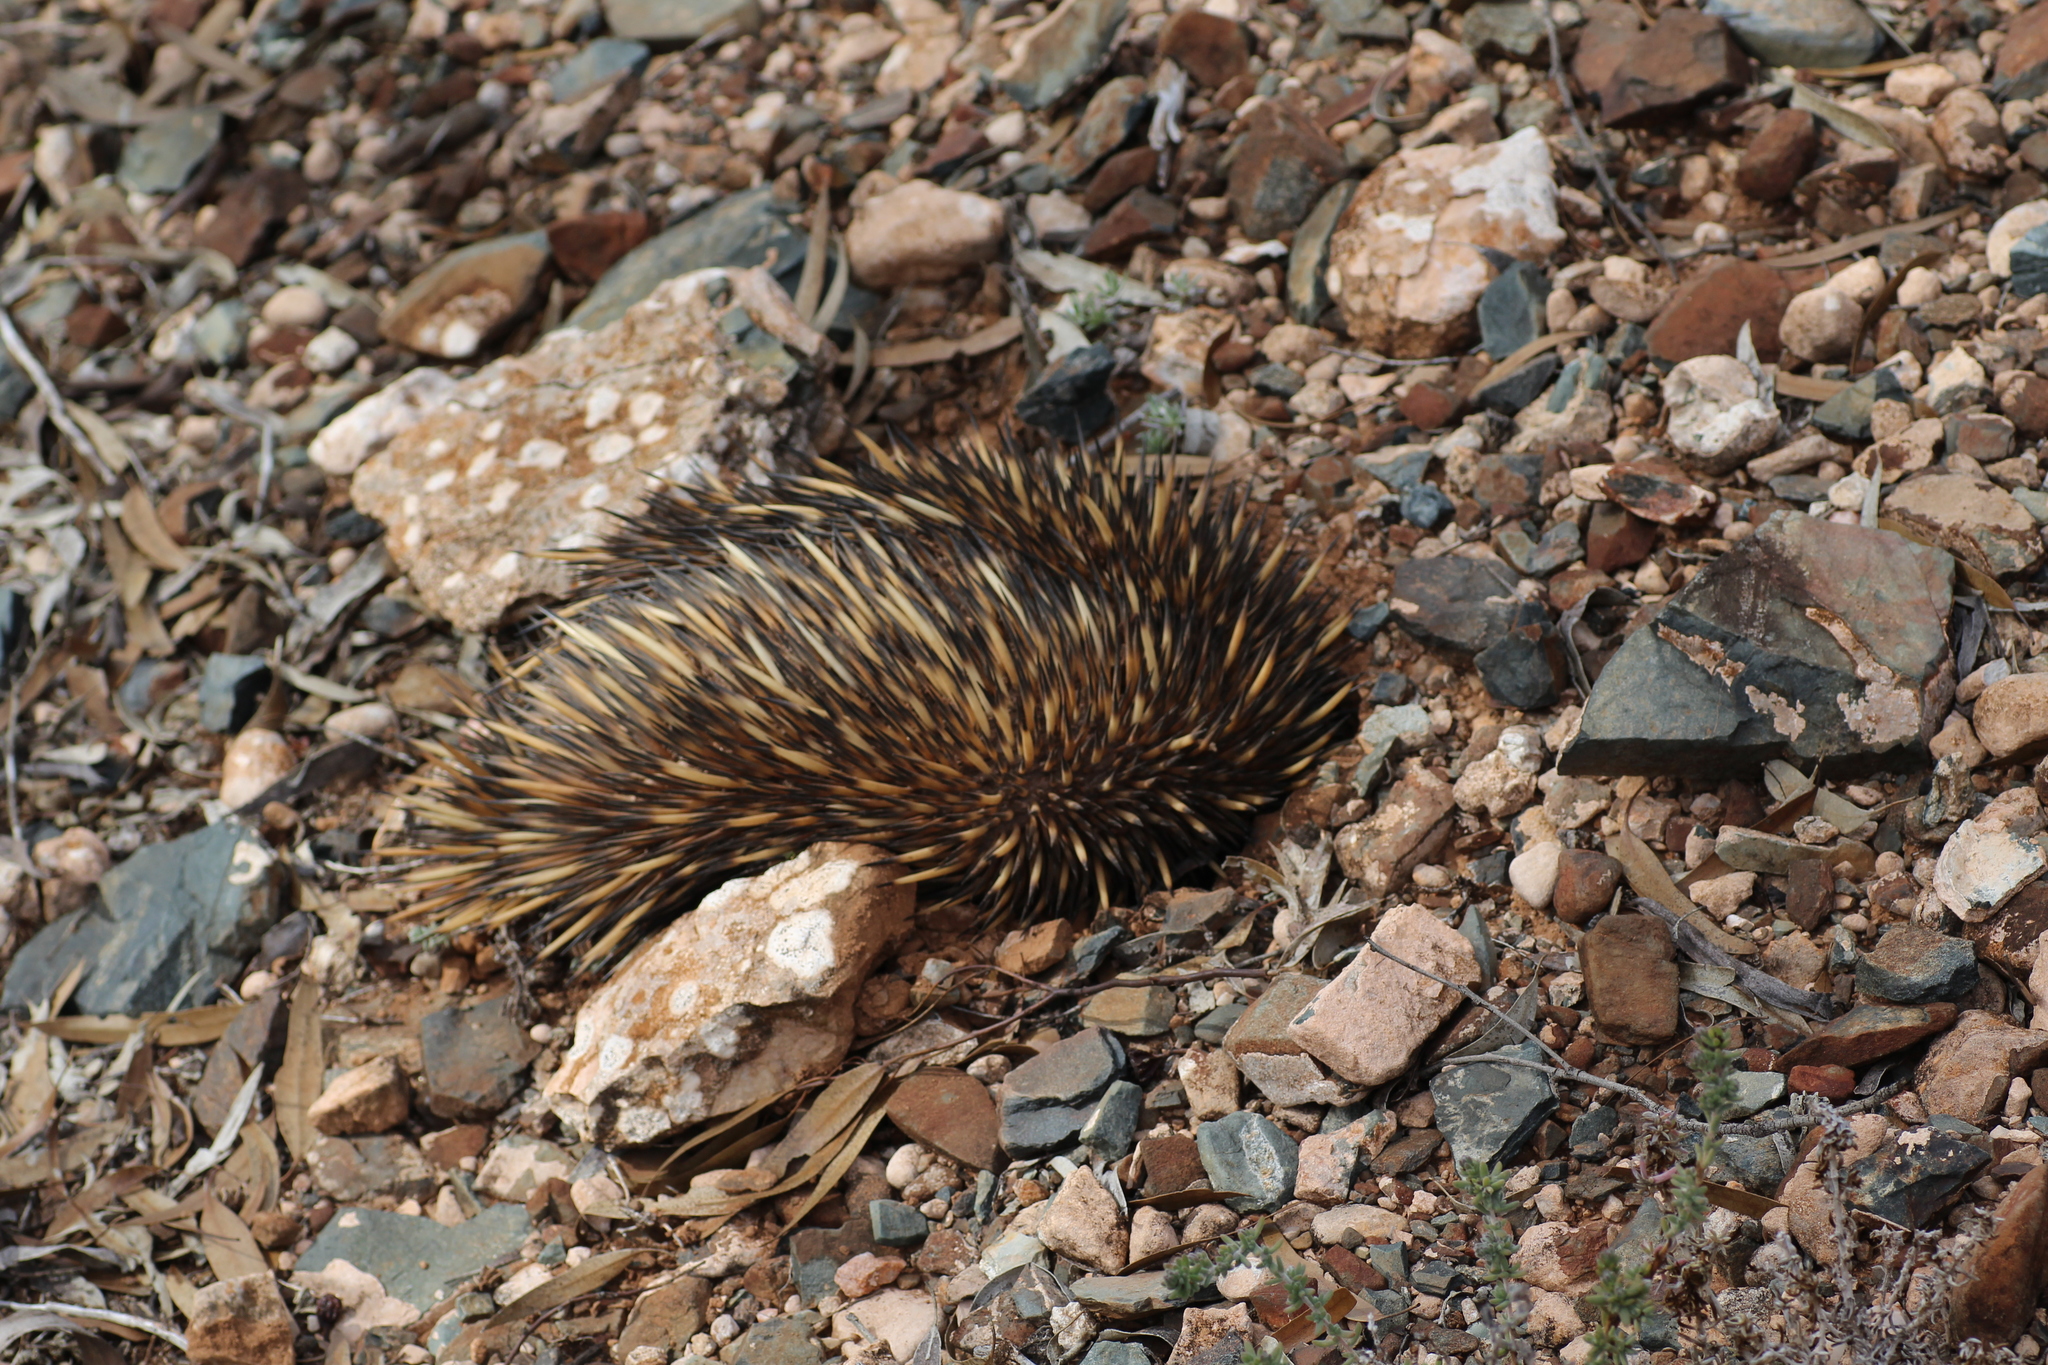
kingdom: Animalia
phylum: Chordata
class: Mammalia
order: Monotremata
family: Tachyglossidae
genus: Tachyglossus
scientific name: Tachyglossus aculeatus
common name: Short-beaked echidna
